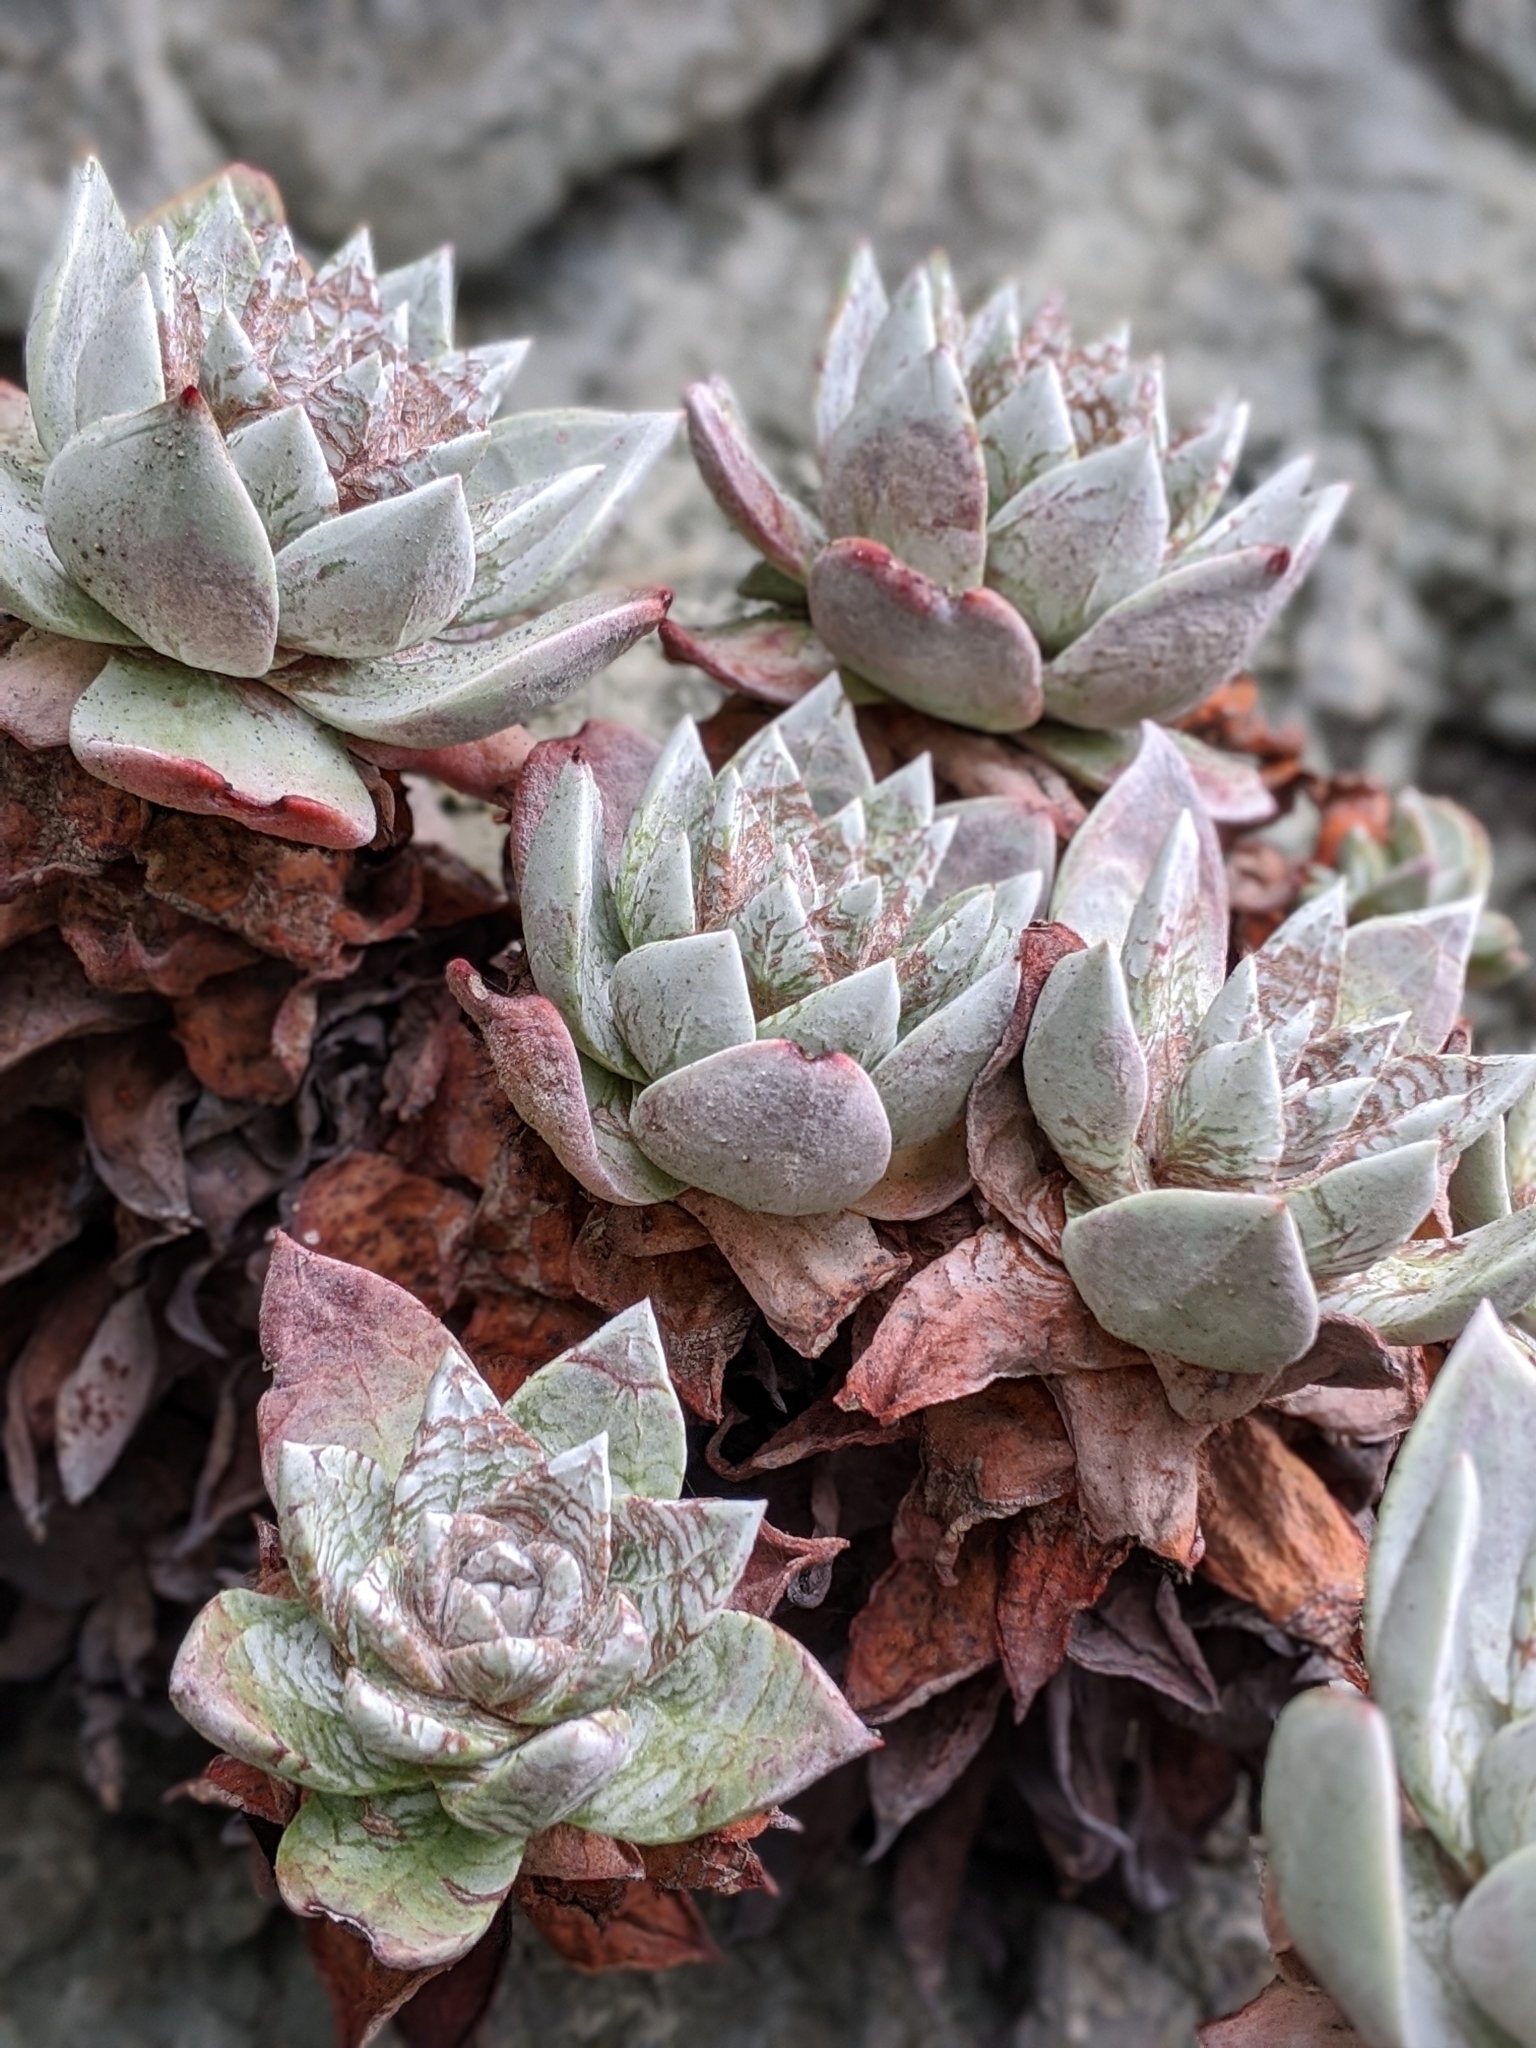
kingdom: Plantae
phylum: Tracheophyta
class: Magnoliopsida
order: Saxifragales
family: Crassulaceae
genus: Dudleya
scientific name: Dudleya farinosa
